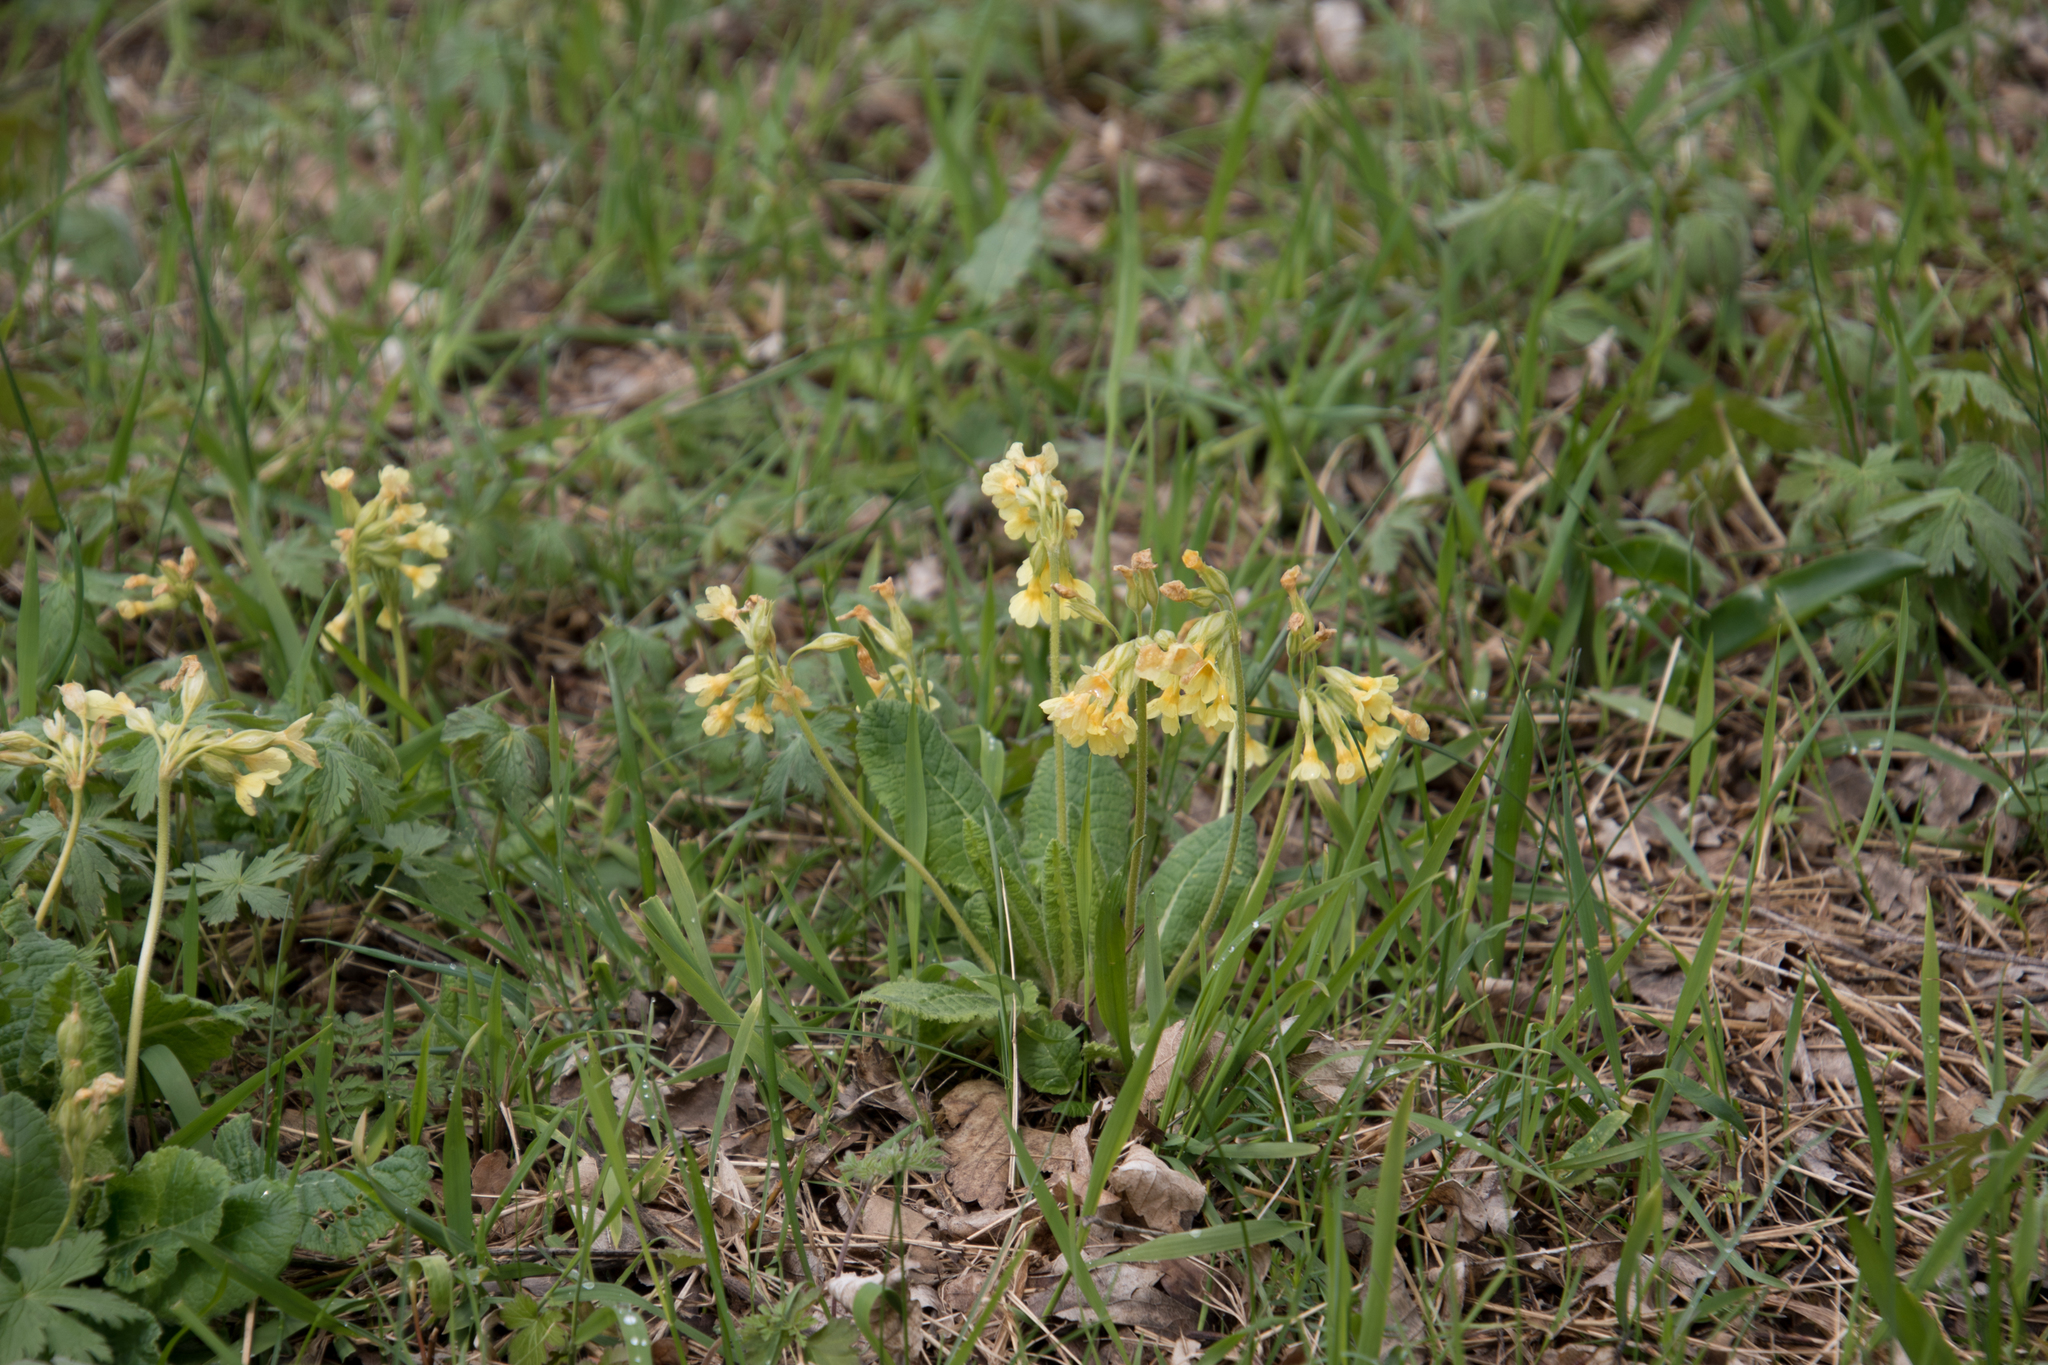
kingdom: Plantae
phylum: Tracheophyta
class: Magnoliopsida
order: Ericales
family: Primulaceae
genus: Primula
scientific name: Primula elatior
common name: Oxlip
